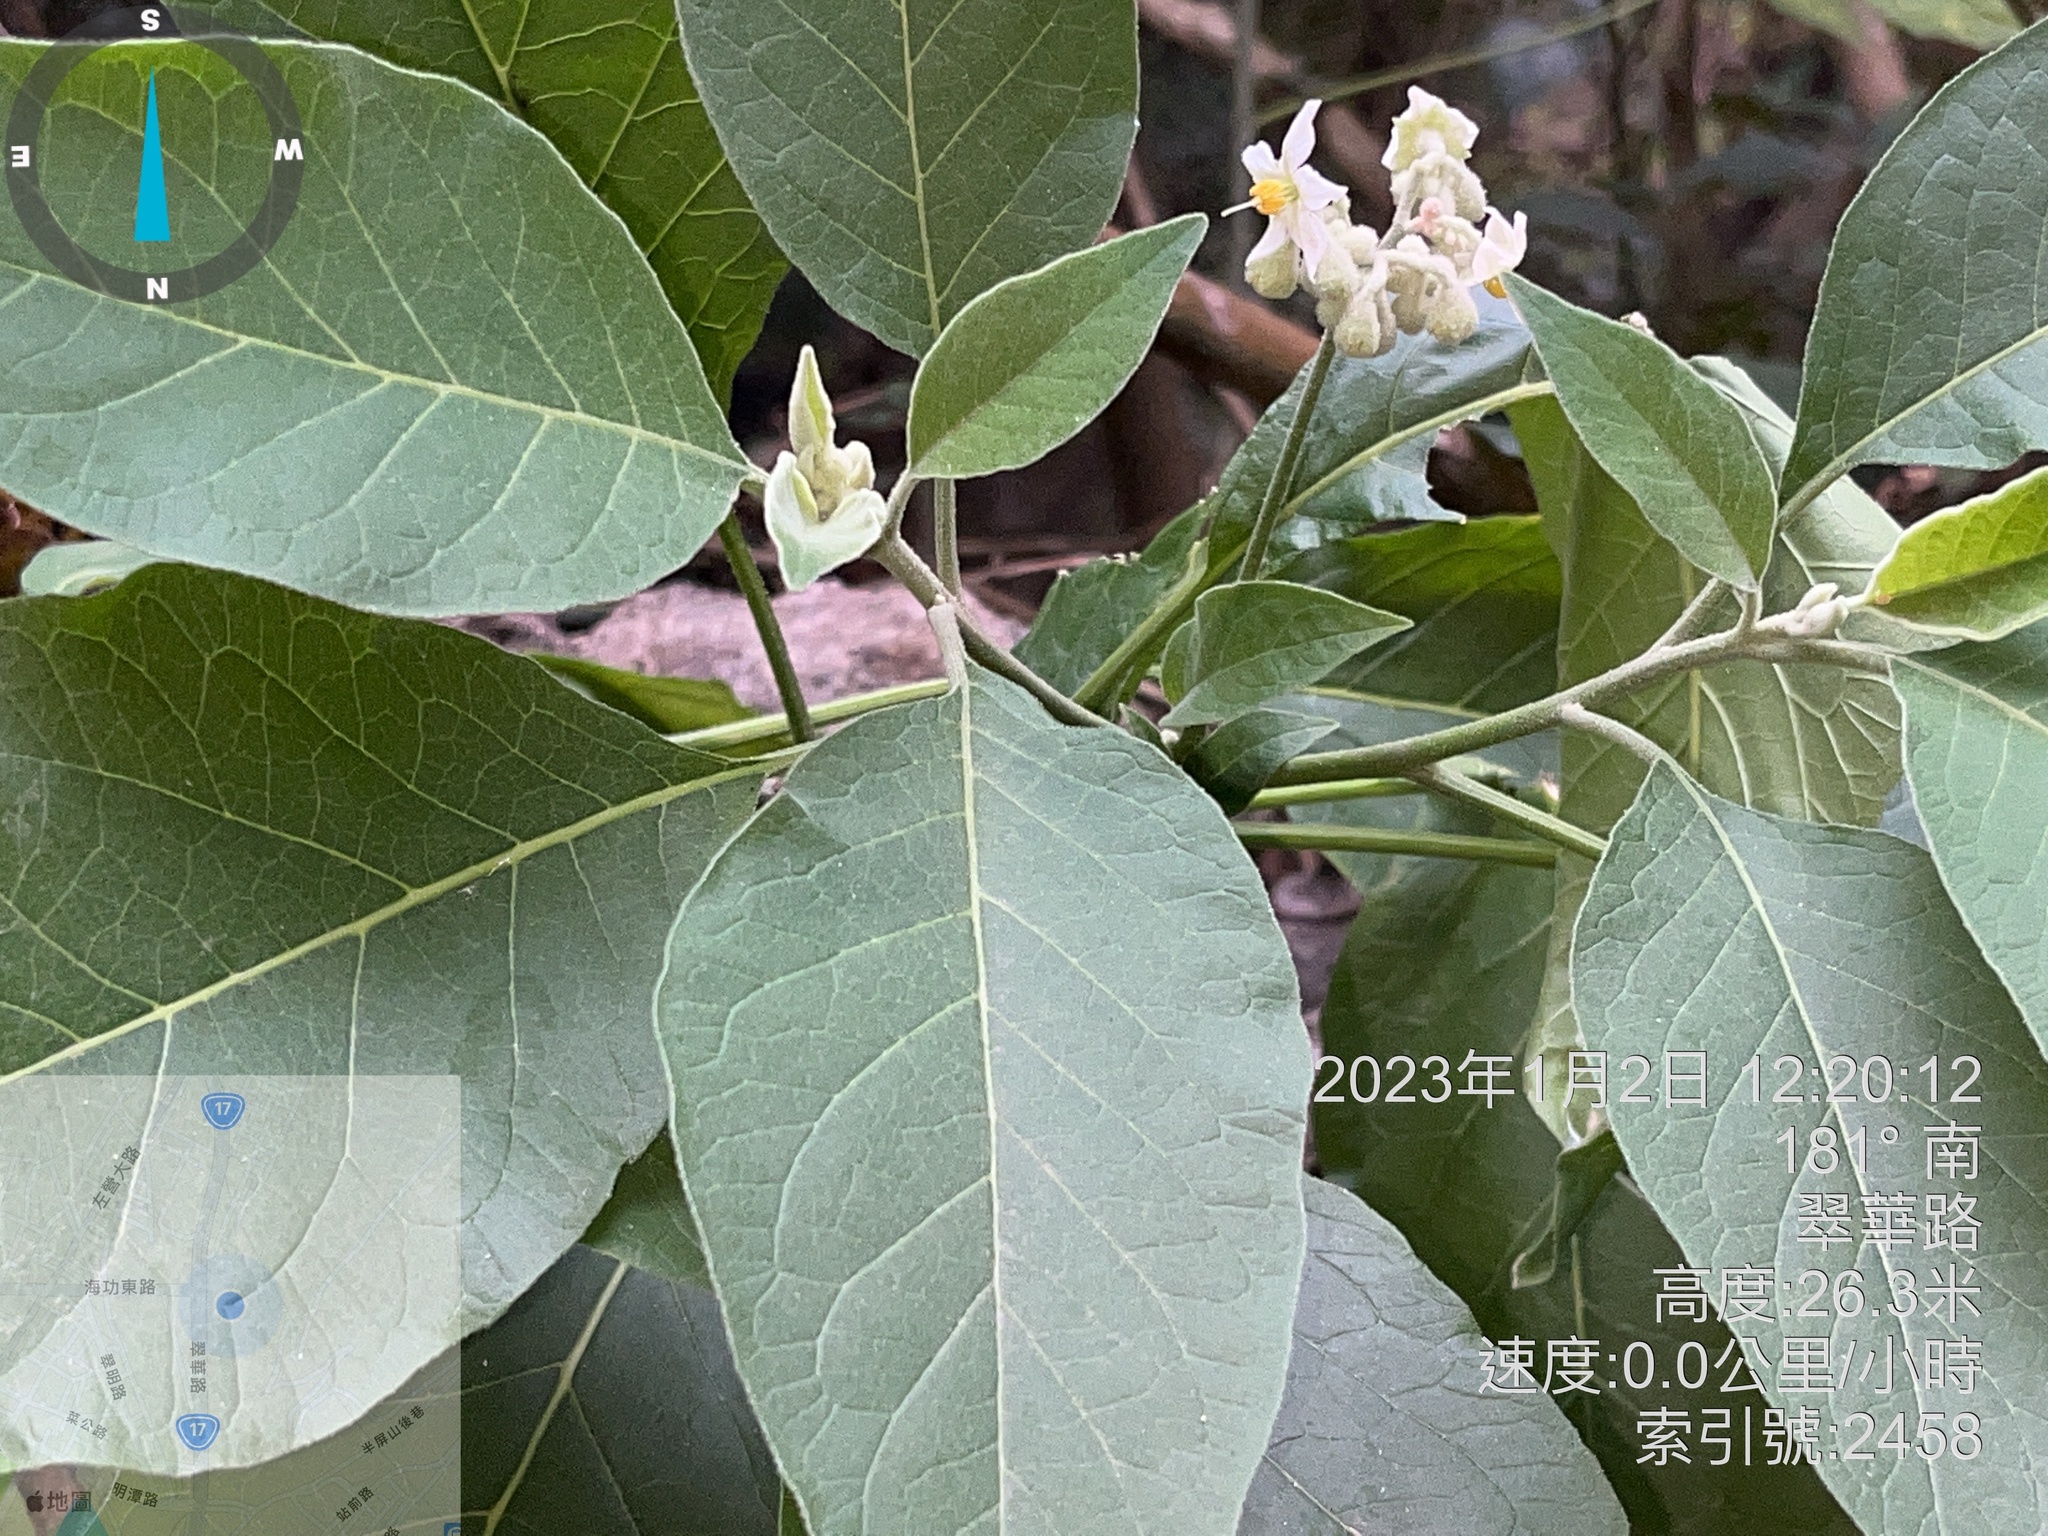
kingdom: Plantae
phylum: Tracheophyta
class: Magnoliopsida
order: Solanales
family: Solanaceae
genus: Solanum
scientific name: Solanum erianthum
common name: Tobacco-tree
